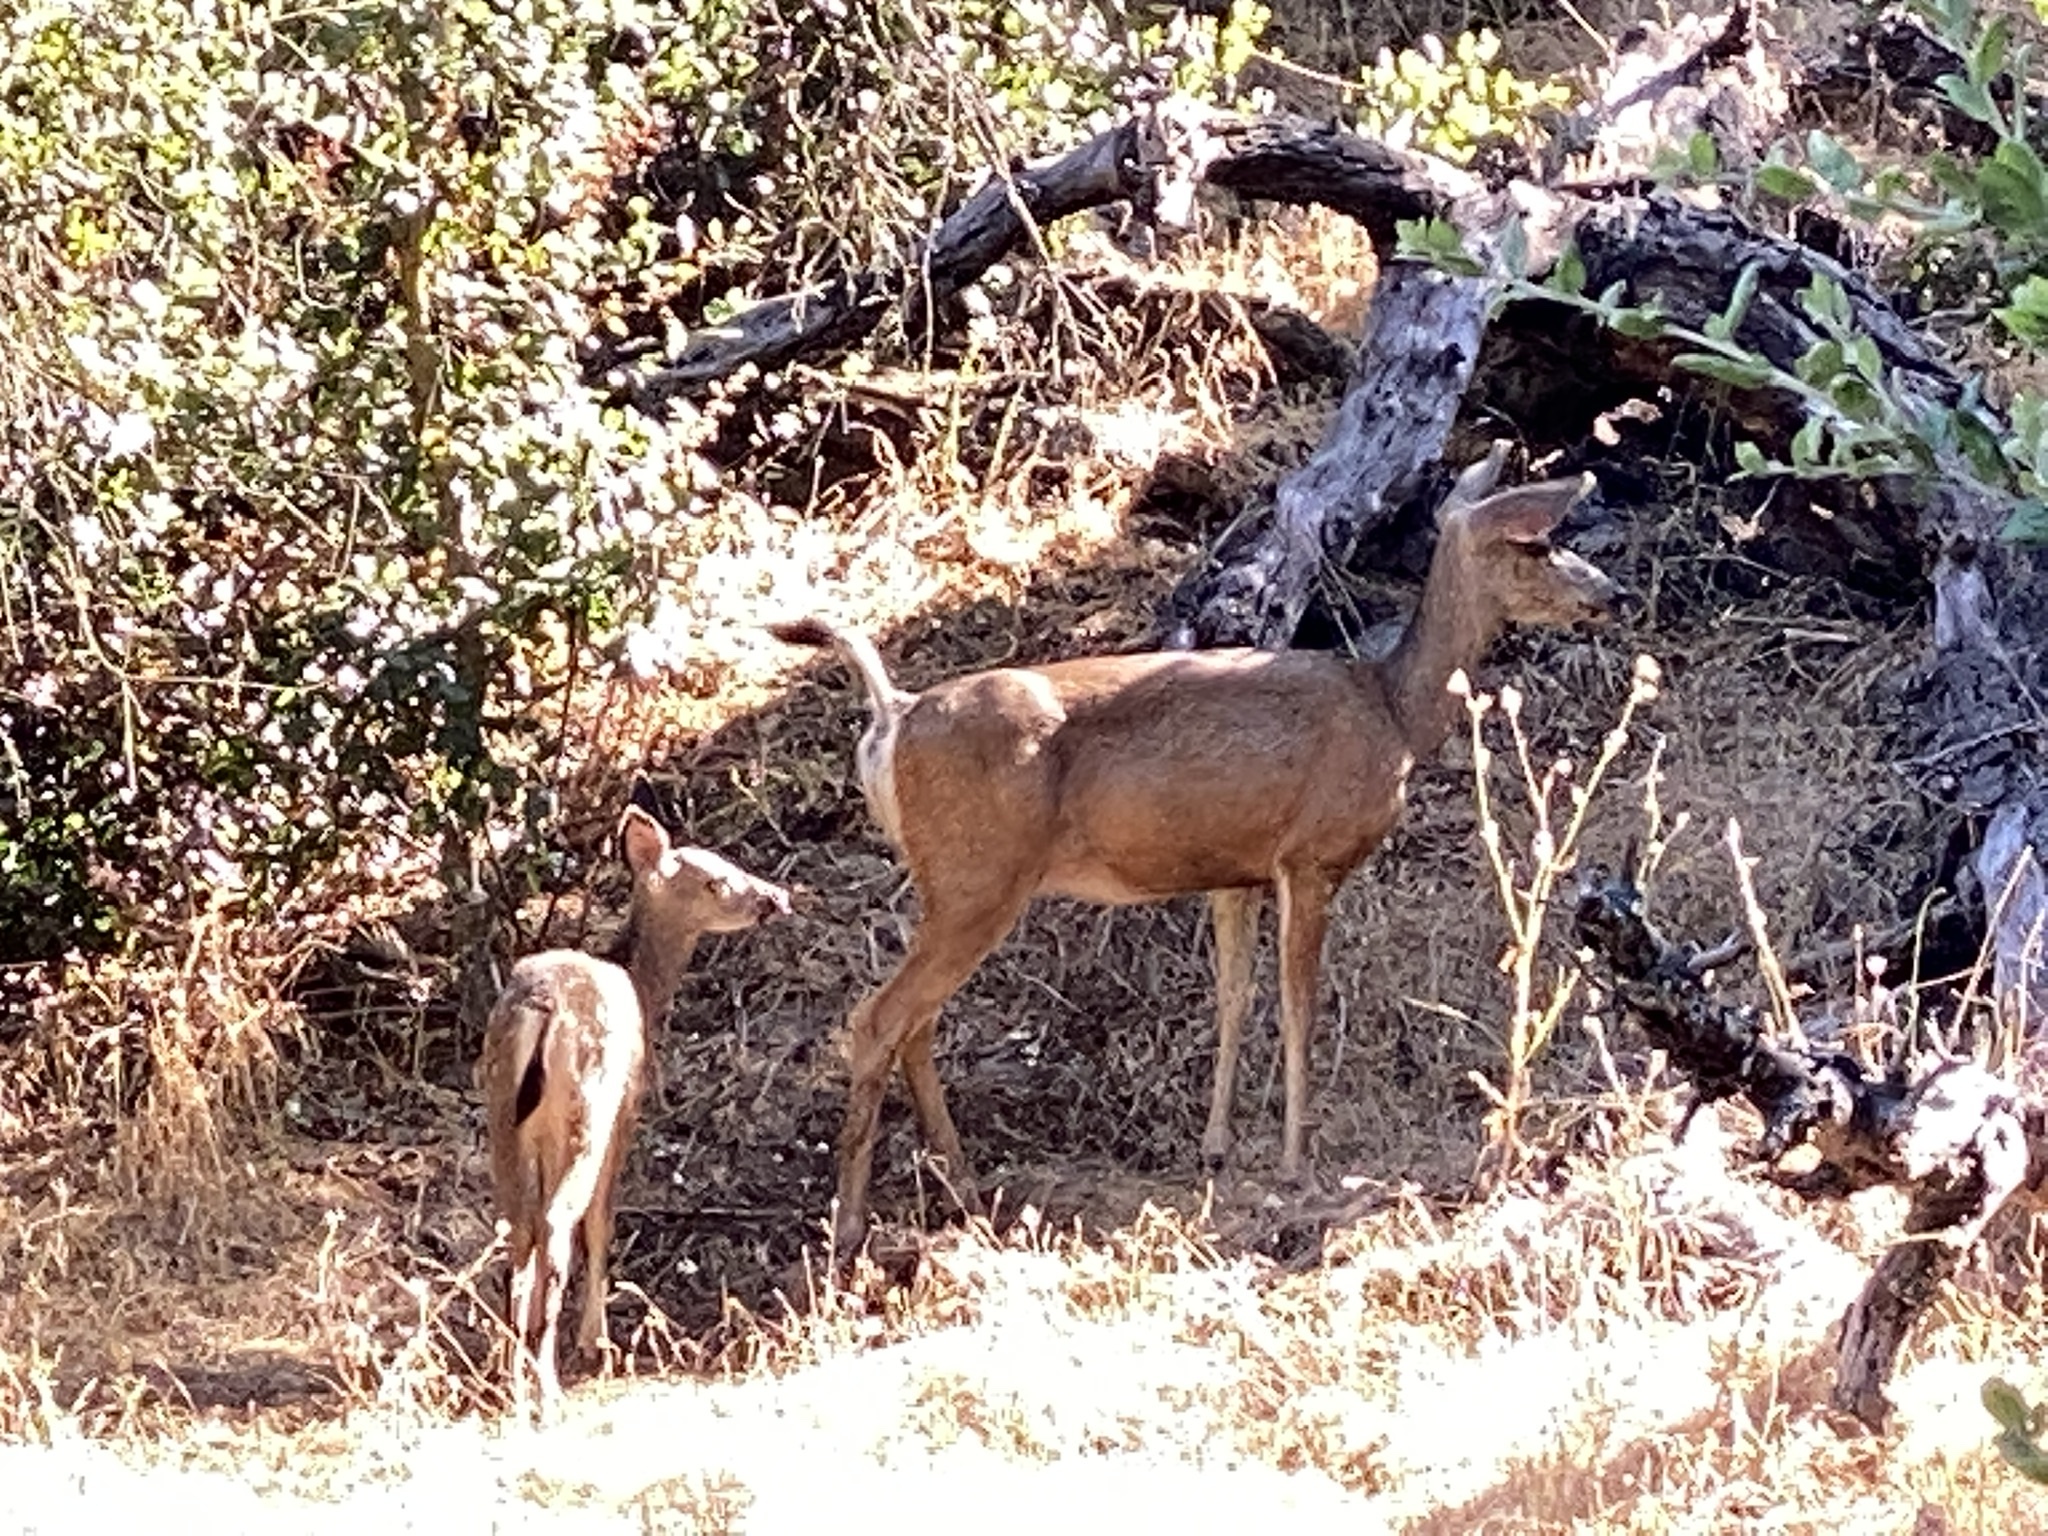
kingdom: Animalia
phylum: Chordata
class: Mammalia
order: Artiodactyla
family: Cervidae
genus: Odocoileus
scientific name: Odocoileus hemionus
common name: Mule deer
